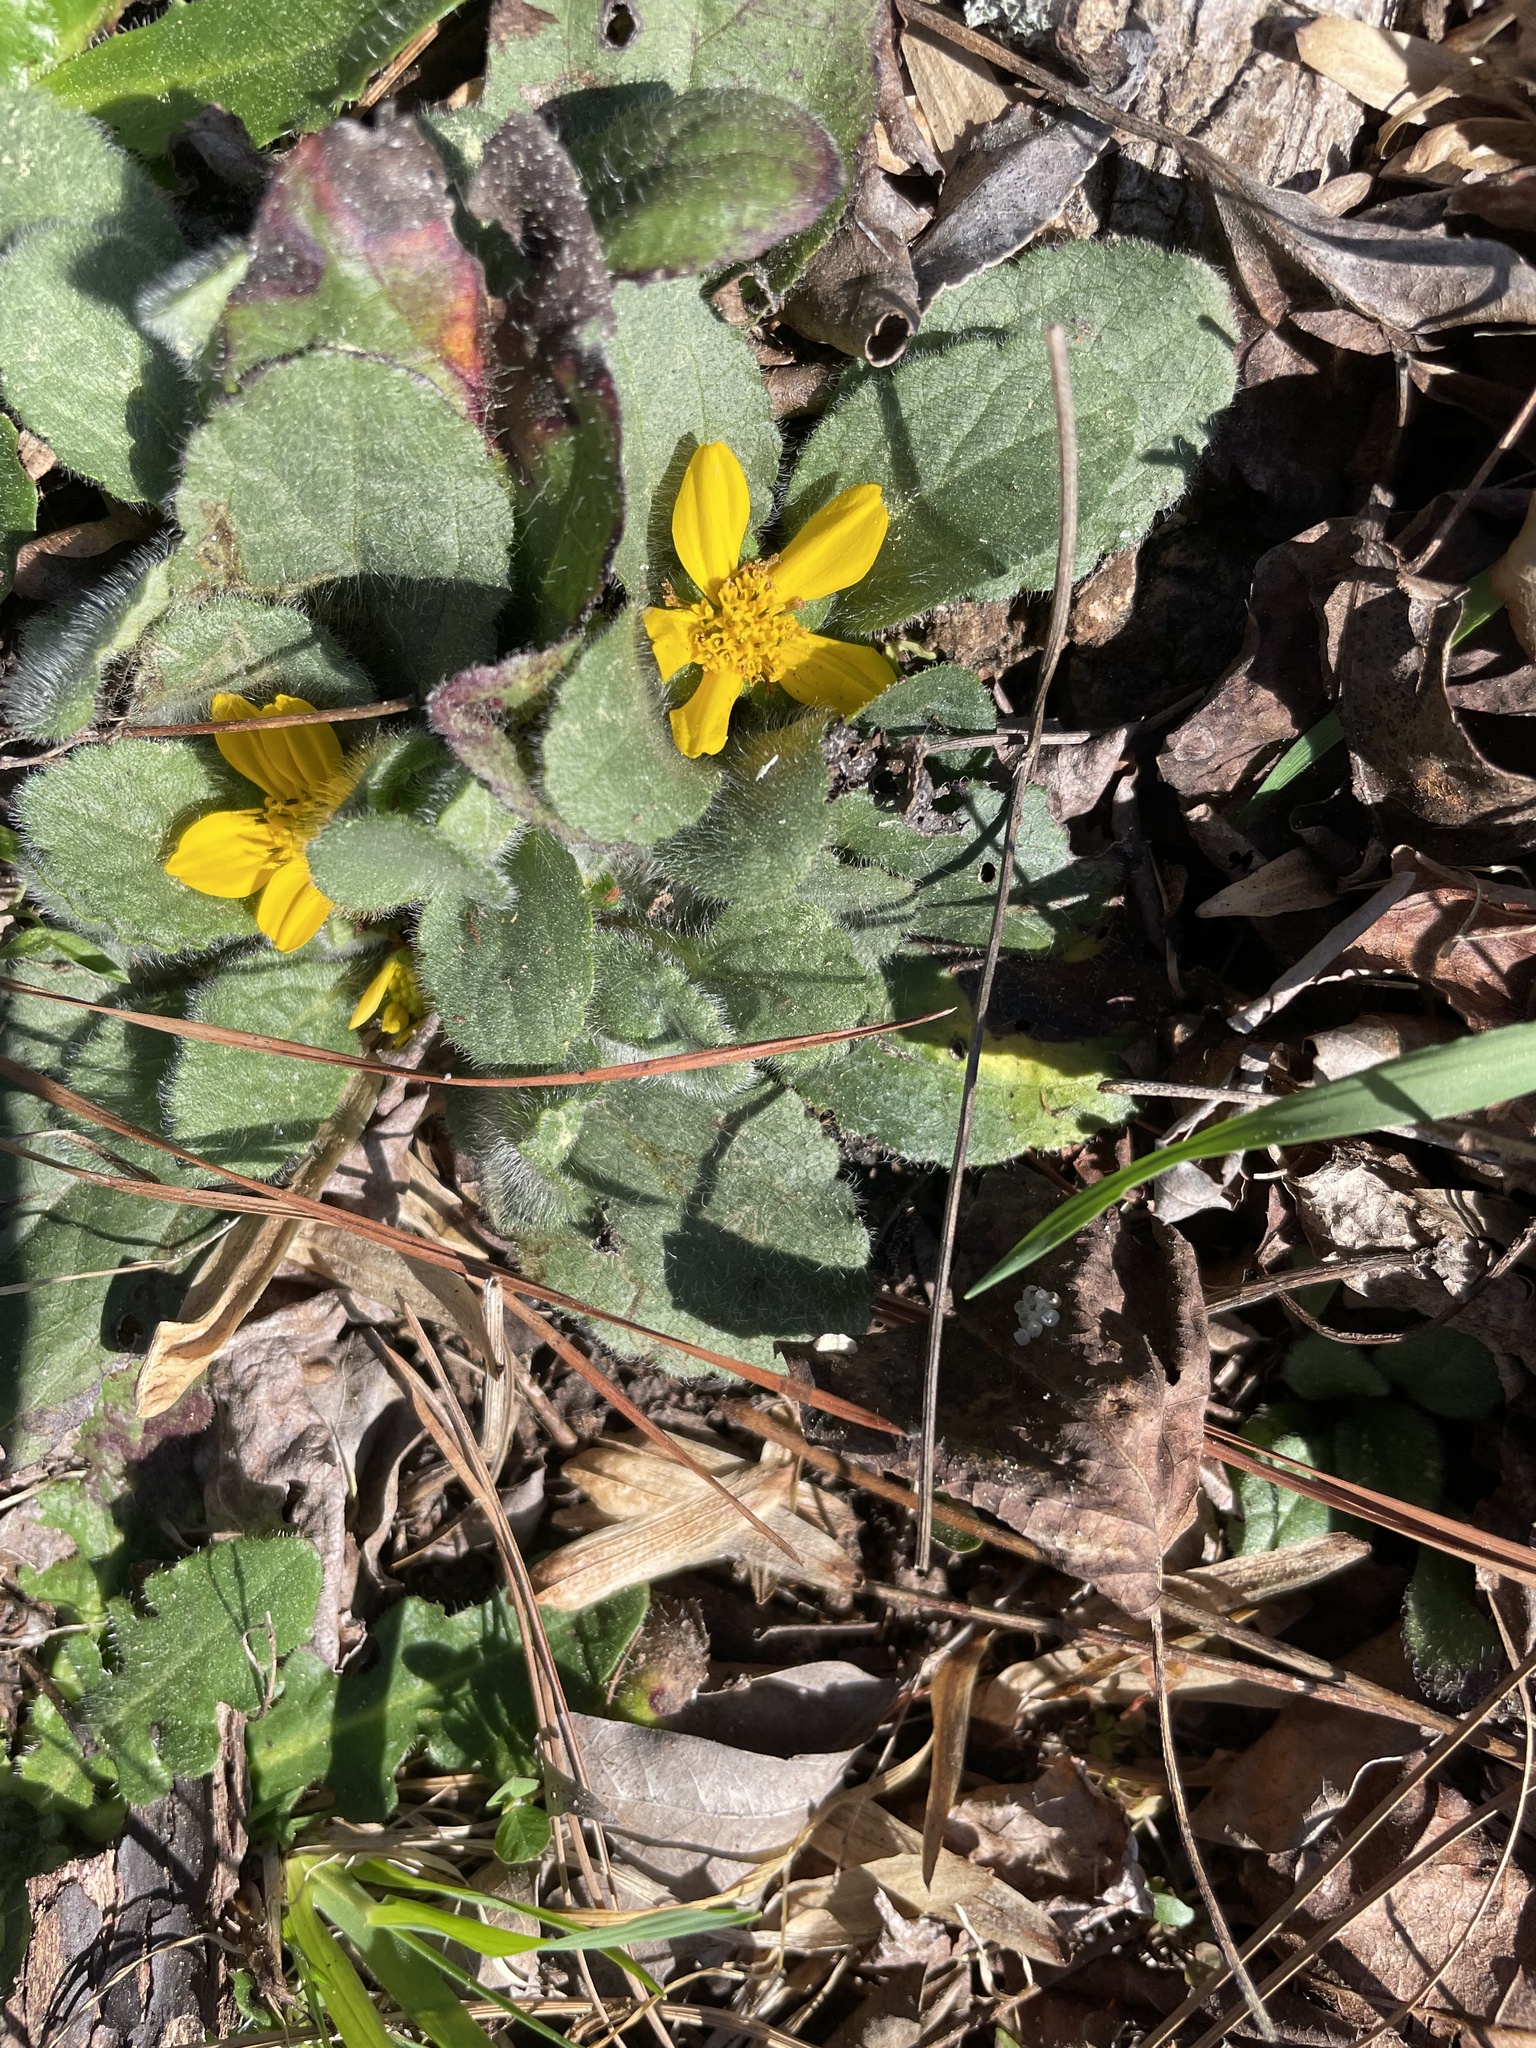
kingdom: Plantae
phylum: Tracheophyta
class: Magnoliopsida
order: Asterales
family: Asteraceae
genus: Chrysogonum
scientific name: Chrysogonum virginianum
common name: Golden-knee
